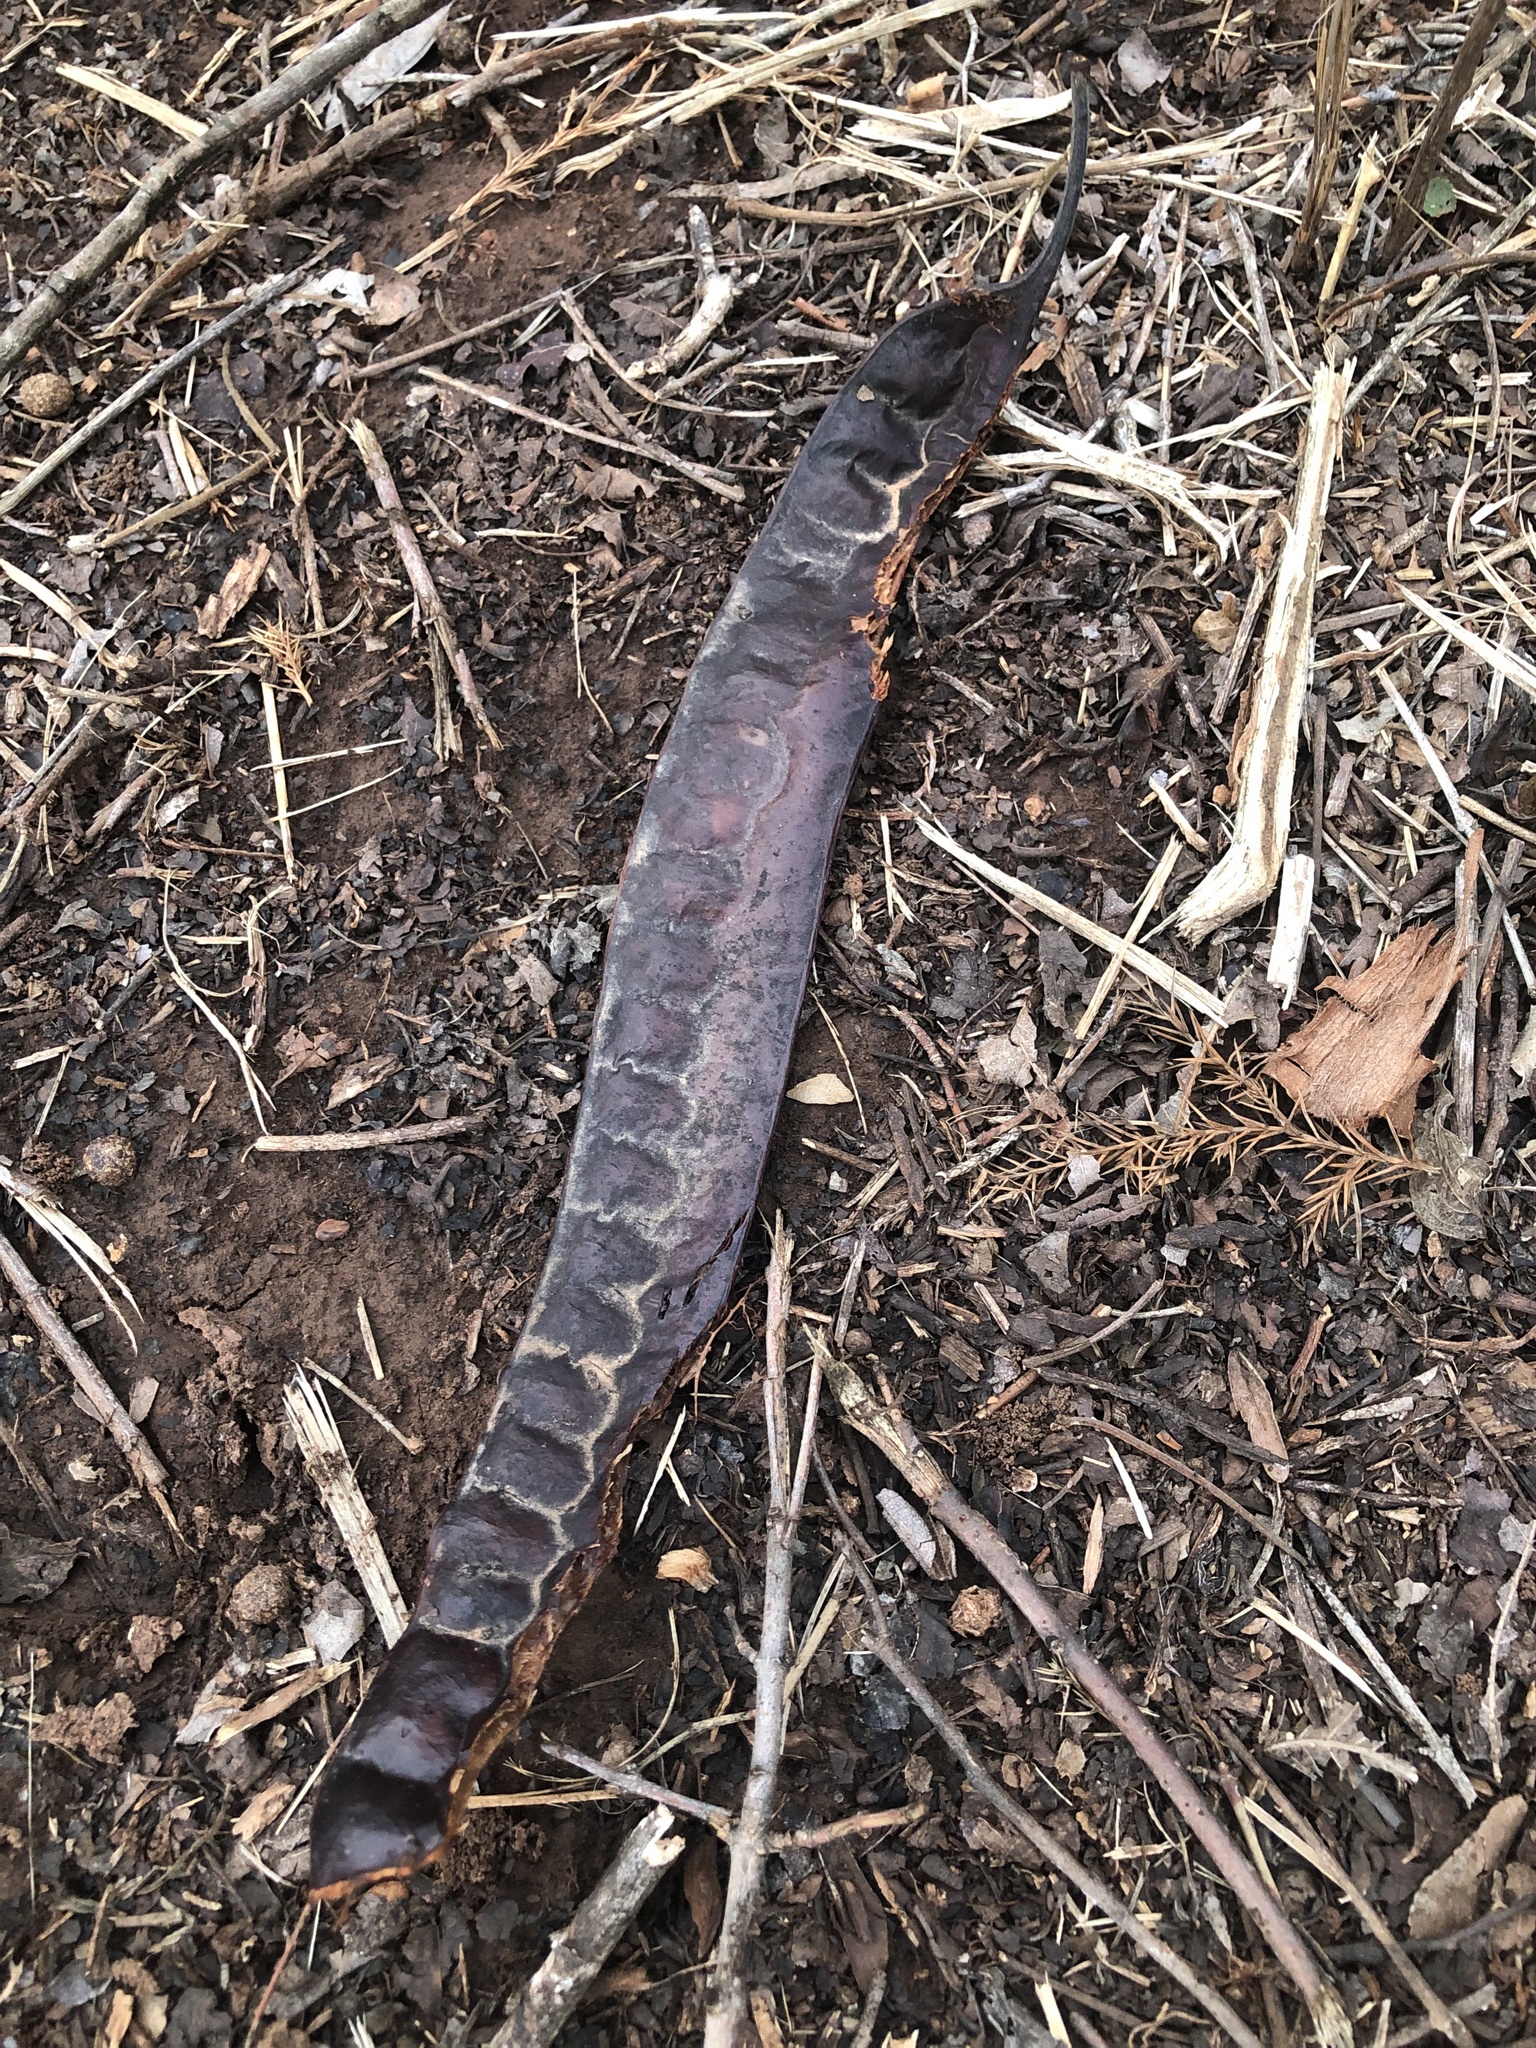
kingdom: Plantae
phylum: Tracheophyta
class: Magnoliopsida
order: Fabales
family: Fabaceae
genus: Gleditsia
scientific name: Gleditsia triacanthos
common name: Common honeylocust
